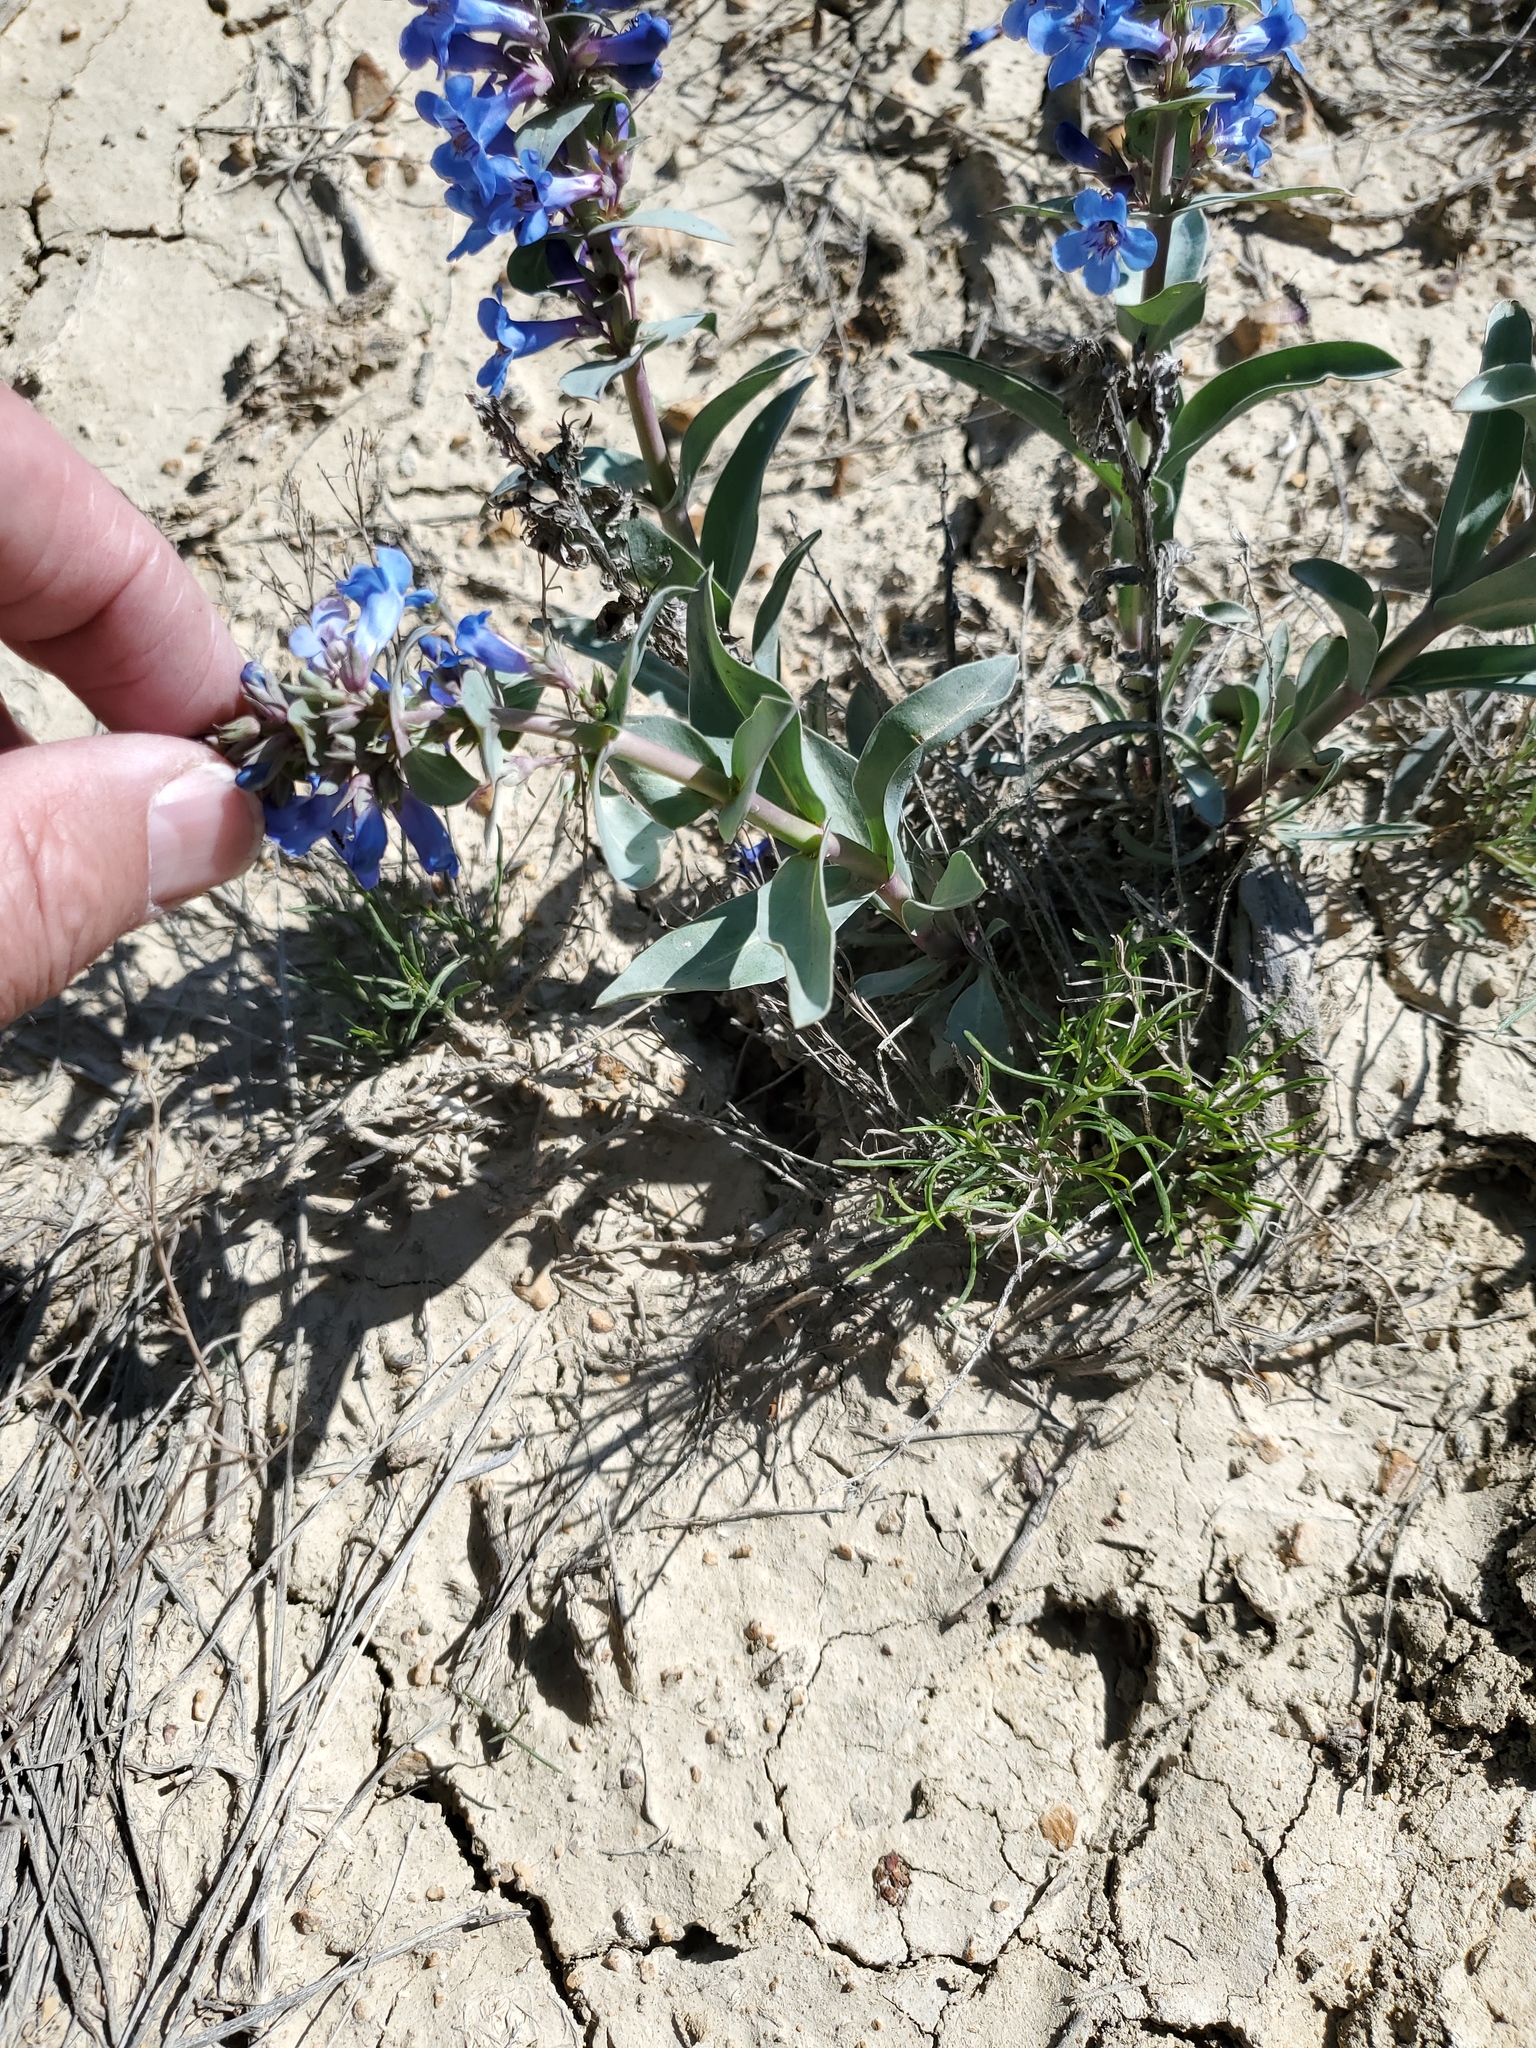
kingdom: Plantae
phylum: Tracheophyta
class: Magnoliopsida
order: Lamiales
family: Plantaginaceae
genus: Penstemon
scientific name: Penstemon nitidus
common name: Shining penstemon
